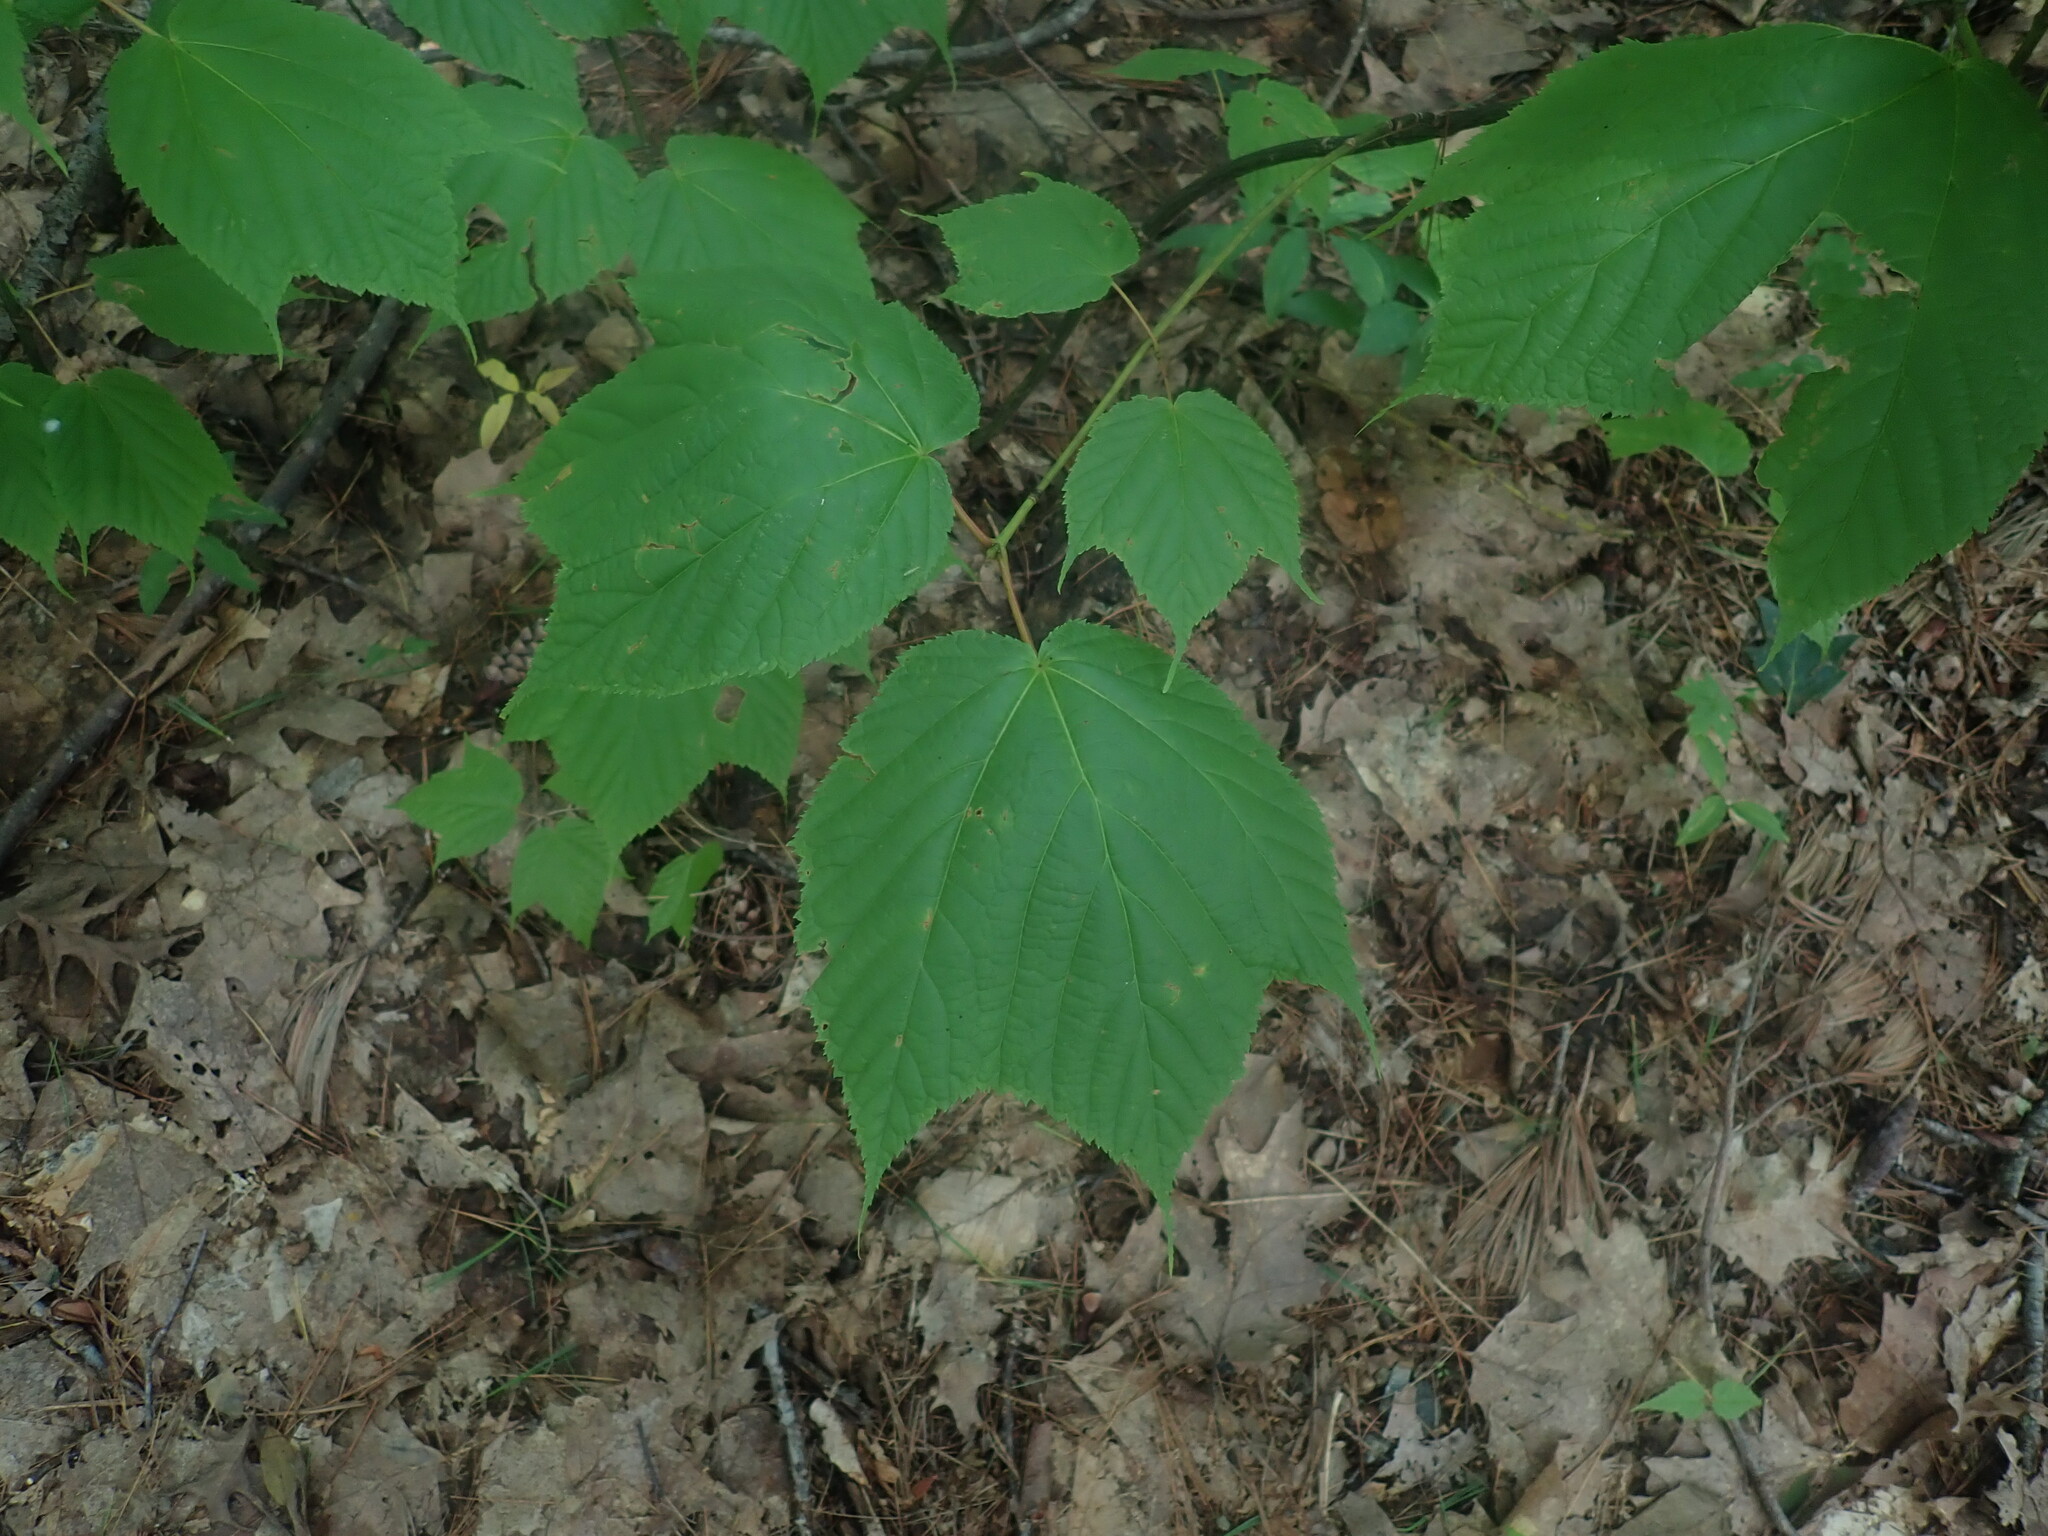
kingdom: Plantae
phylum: Tracheophyta
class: Magnoliopsida
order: Sapindales
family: Sapindaceae
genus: Acer
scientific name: Acer pensylvanicum
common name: Moosewood
